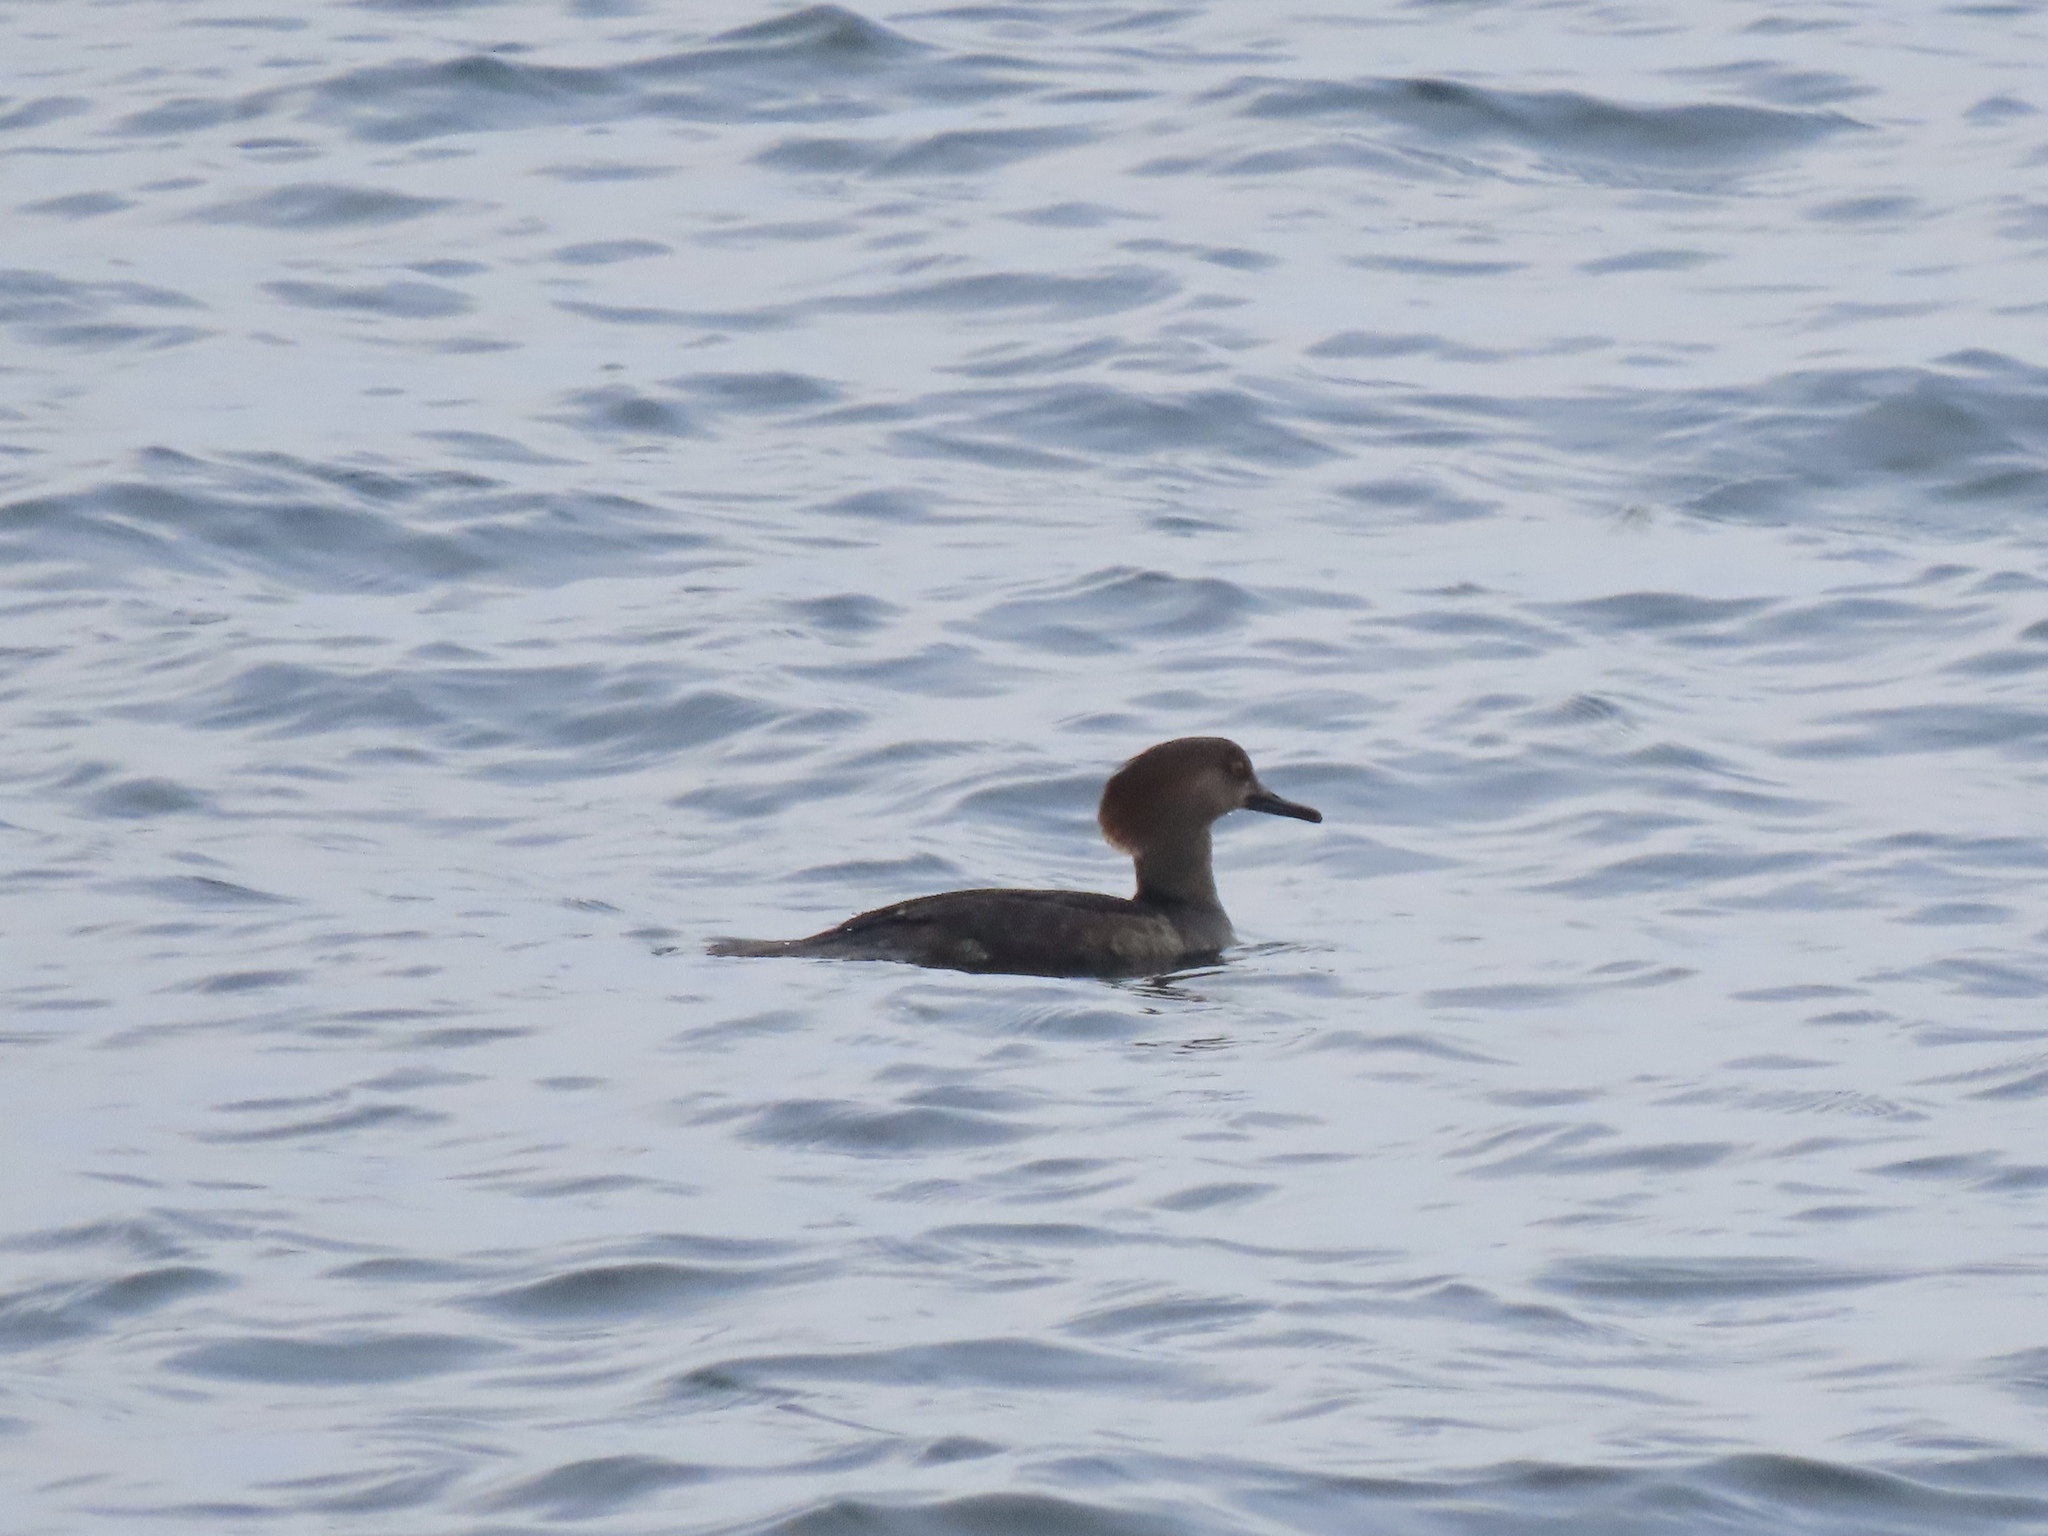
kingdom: Animalia
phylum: Chordata
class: Aves
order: Anseriformes
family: Anatidae
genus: Lophodytes
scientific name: Lophodytes cucullatus
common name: Hooded merganser
